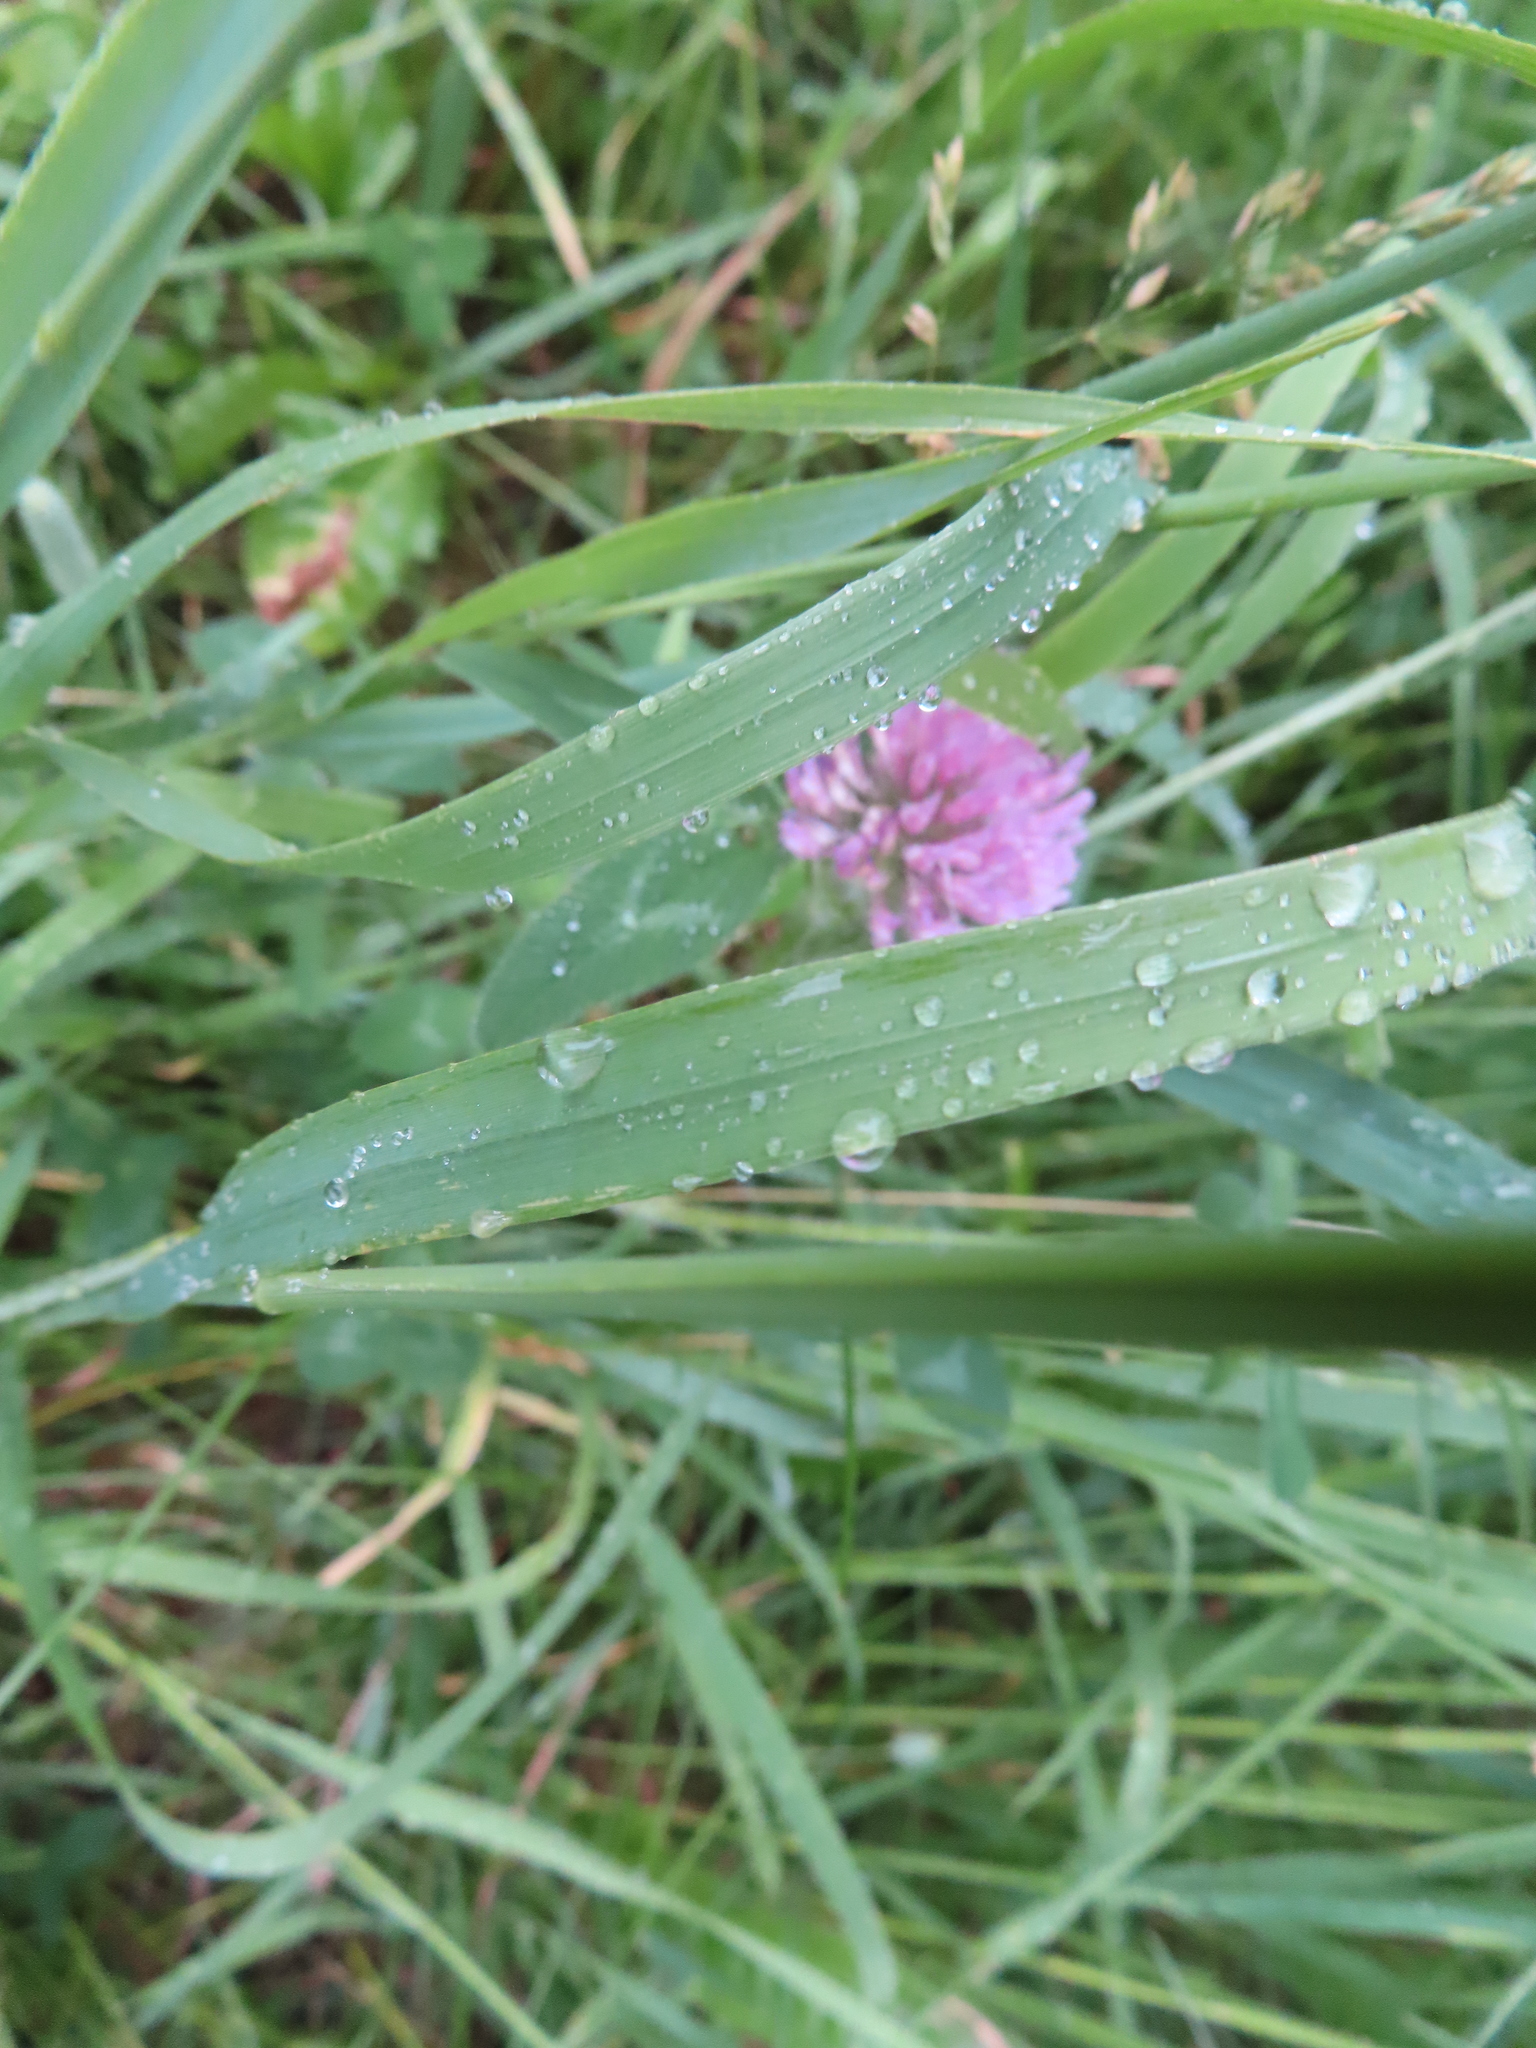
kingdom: Plantae
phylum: Tracheophyta
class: Magnoliopsida
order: Fabales
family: Fabaceae
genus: Trifolium
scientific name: Trifolium pratense
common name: Red clover
